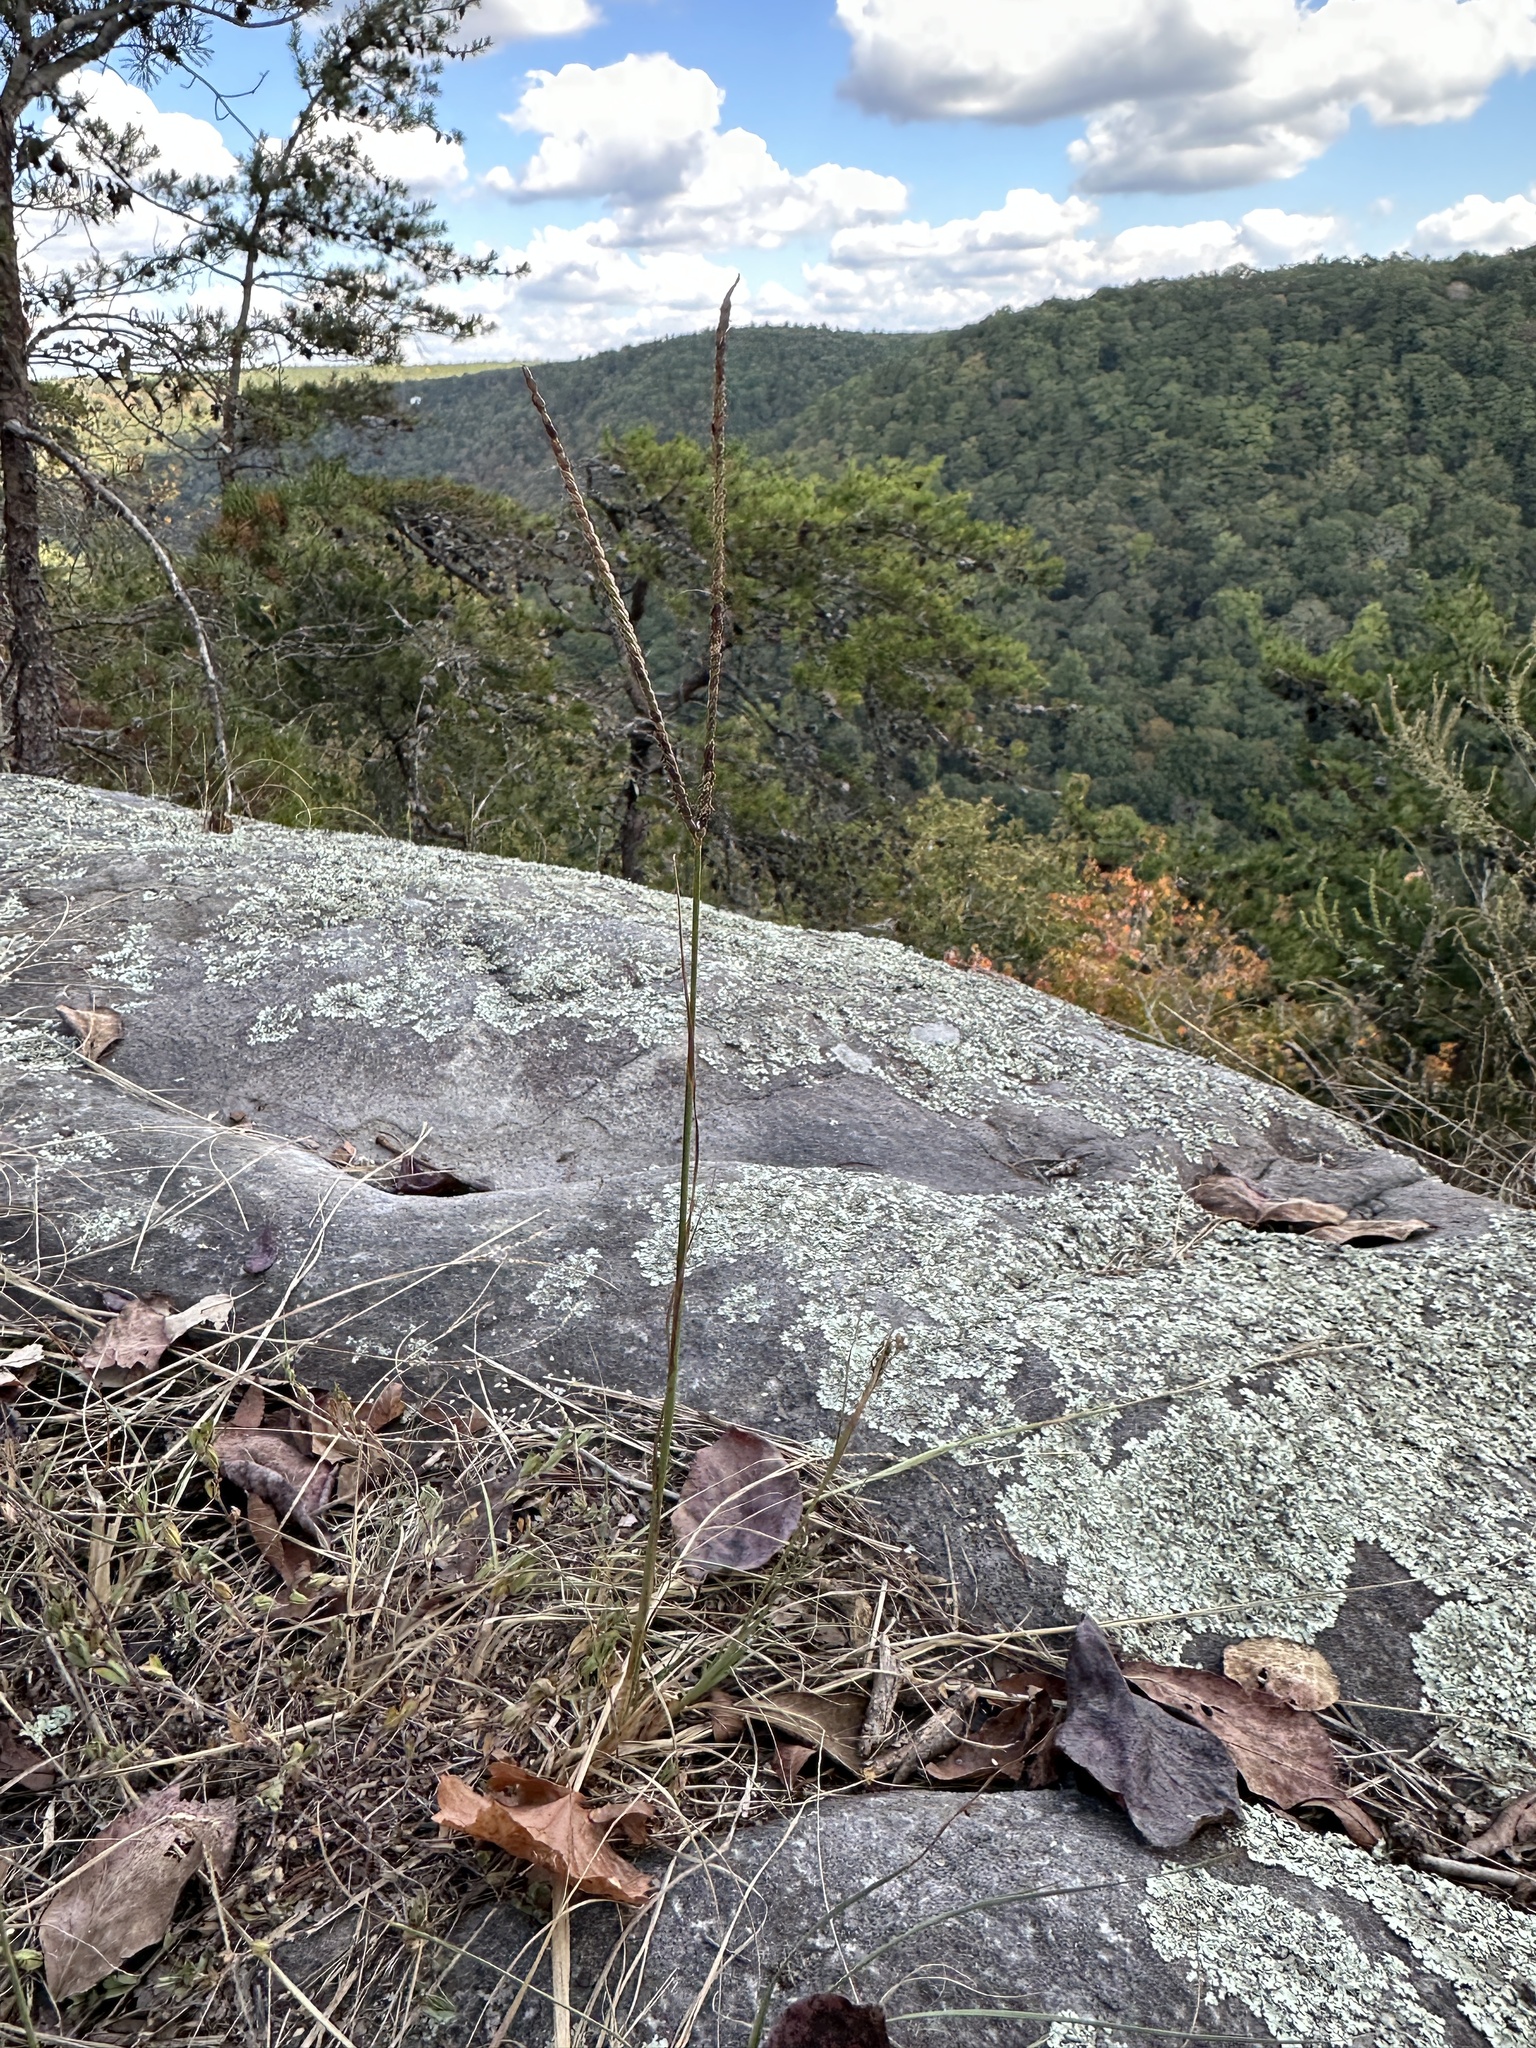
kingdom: Plantae
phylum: Tracheophyta
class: Liliopsida
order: Poales
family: Poaceae
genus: Paspalum
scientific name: Paspalum notatum
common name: Bahiagrass
